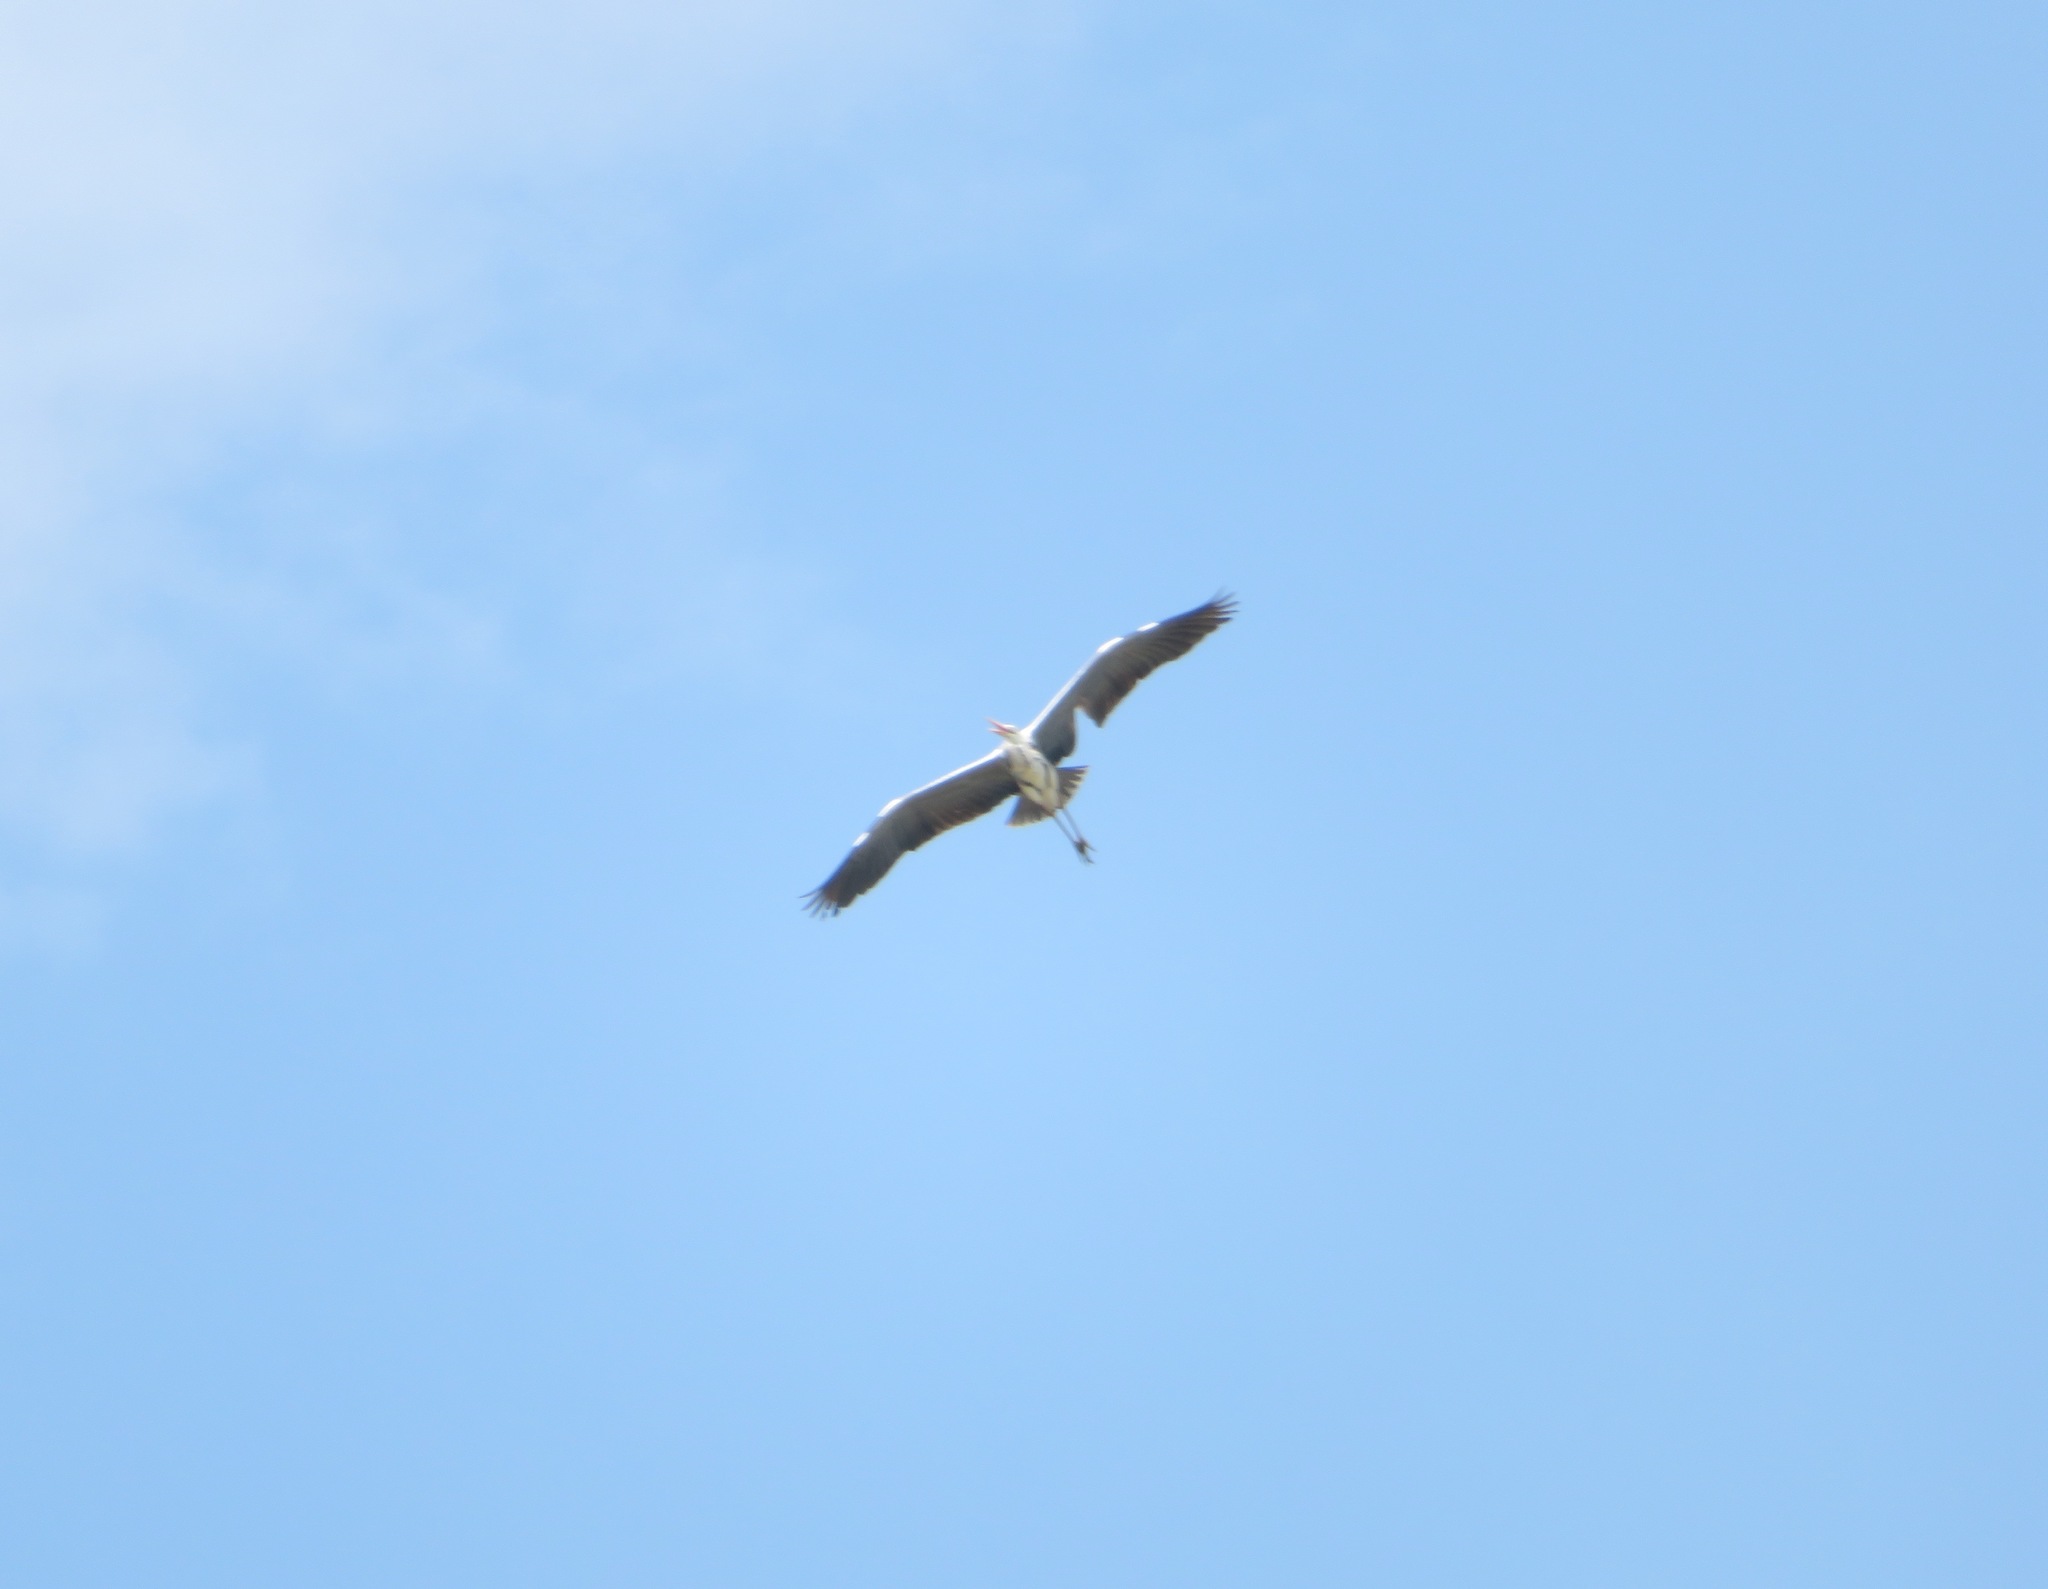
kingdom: Animalia
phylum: Chordata
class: Aves
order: Pelecaniformes
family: Ardeidae
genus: Ardea
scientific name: Ardea cinerea
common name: Grey heron
